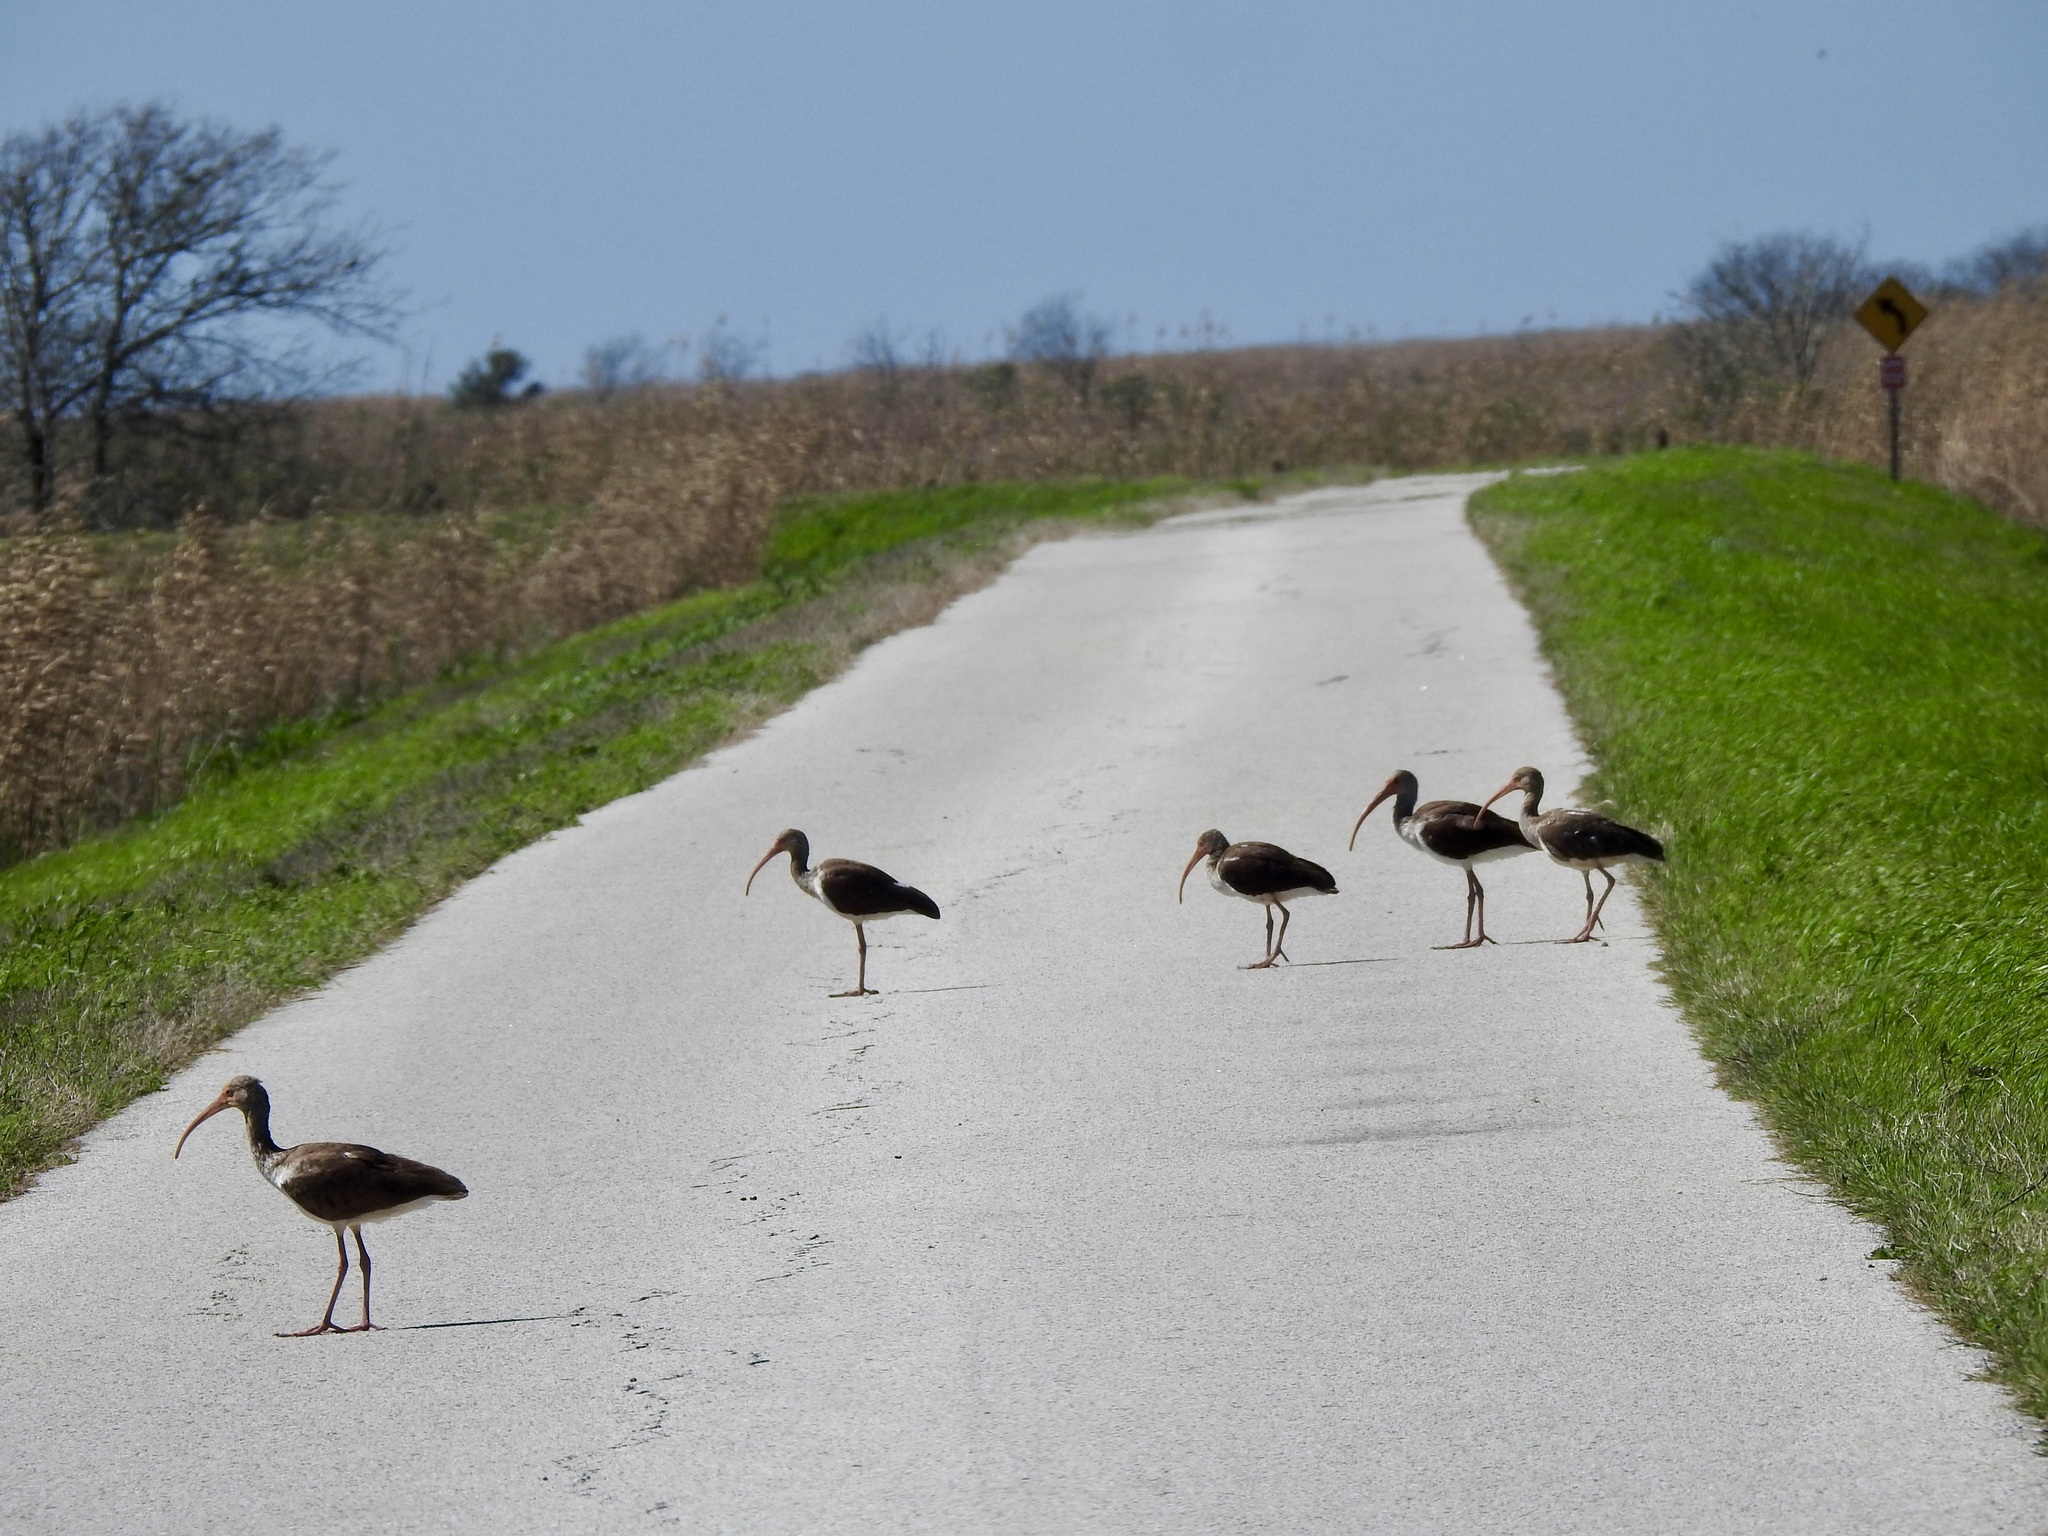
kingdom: Animalia
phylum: Chordata
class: Aves
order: Pelecaniformes
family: Threskiornithidae
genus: Eudocimus
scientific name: Eudocimus albus
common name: White ibis
